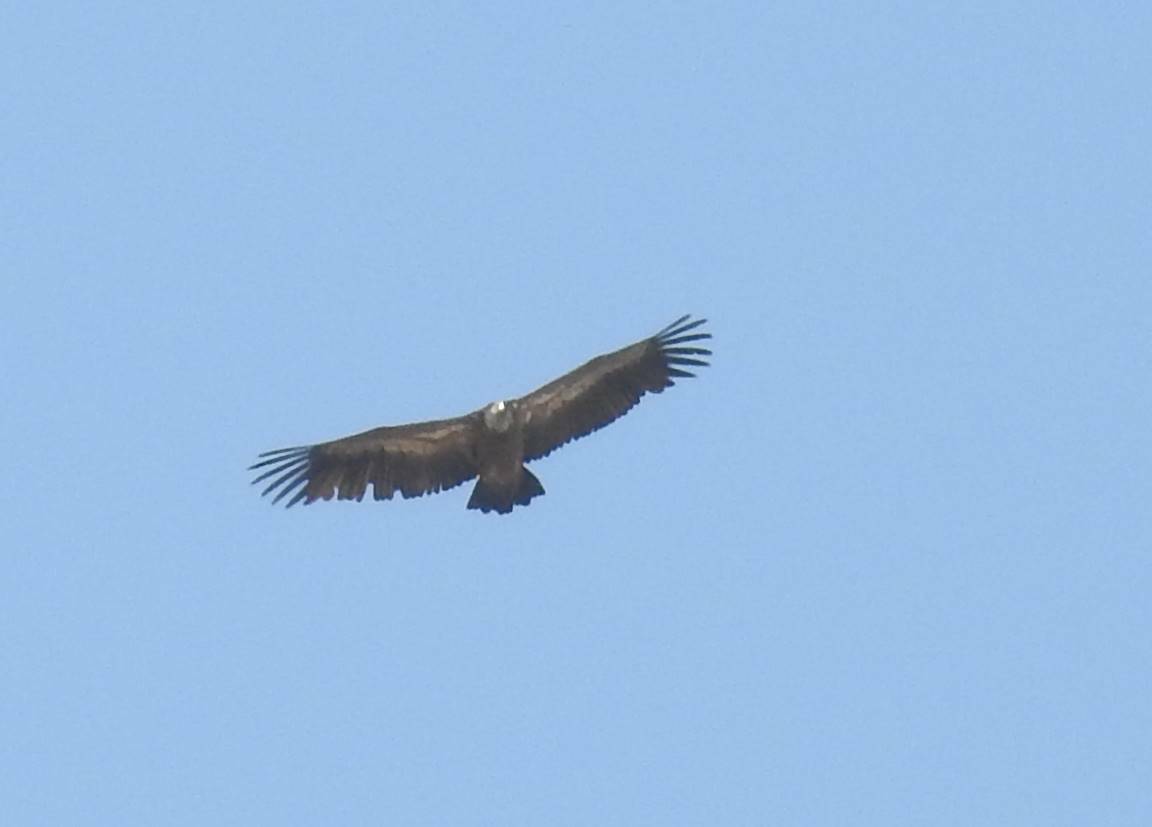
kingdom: Animalia
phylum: Chordata
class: Aves
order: Accipitriformes
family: Accipitridae
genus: Gyps
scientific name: Gyps fulvus
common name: Griffon vulture
